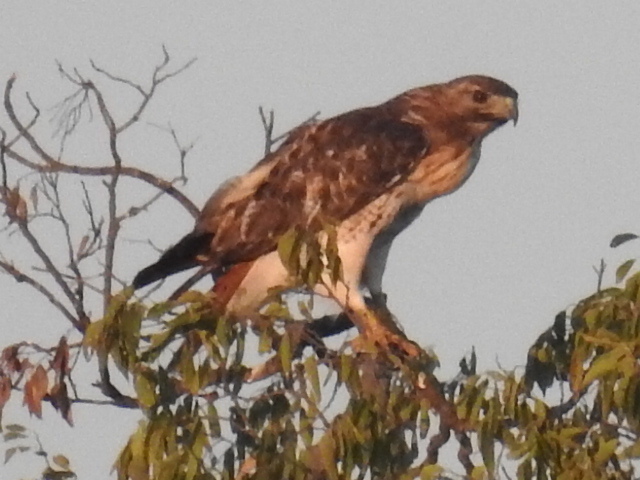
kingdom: Animalia
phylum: Chordata
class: Aves
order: Accipitriformes
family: Accipitridae
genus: Buteo
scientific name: Buteo jamaicensis
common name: Red-tailed hawk
